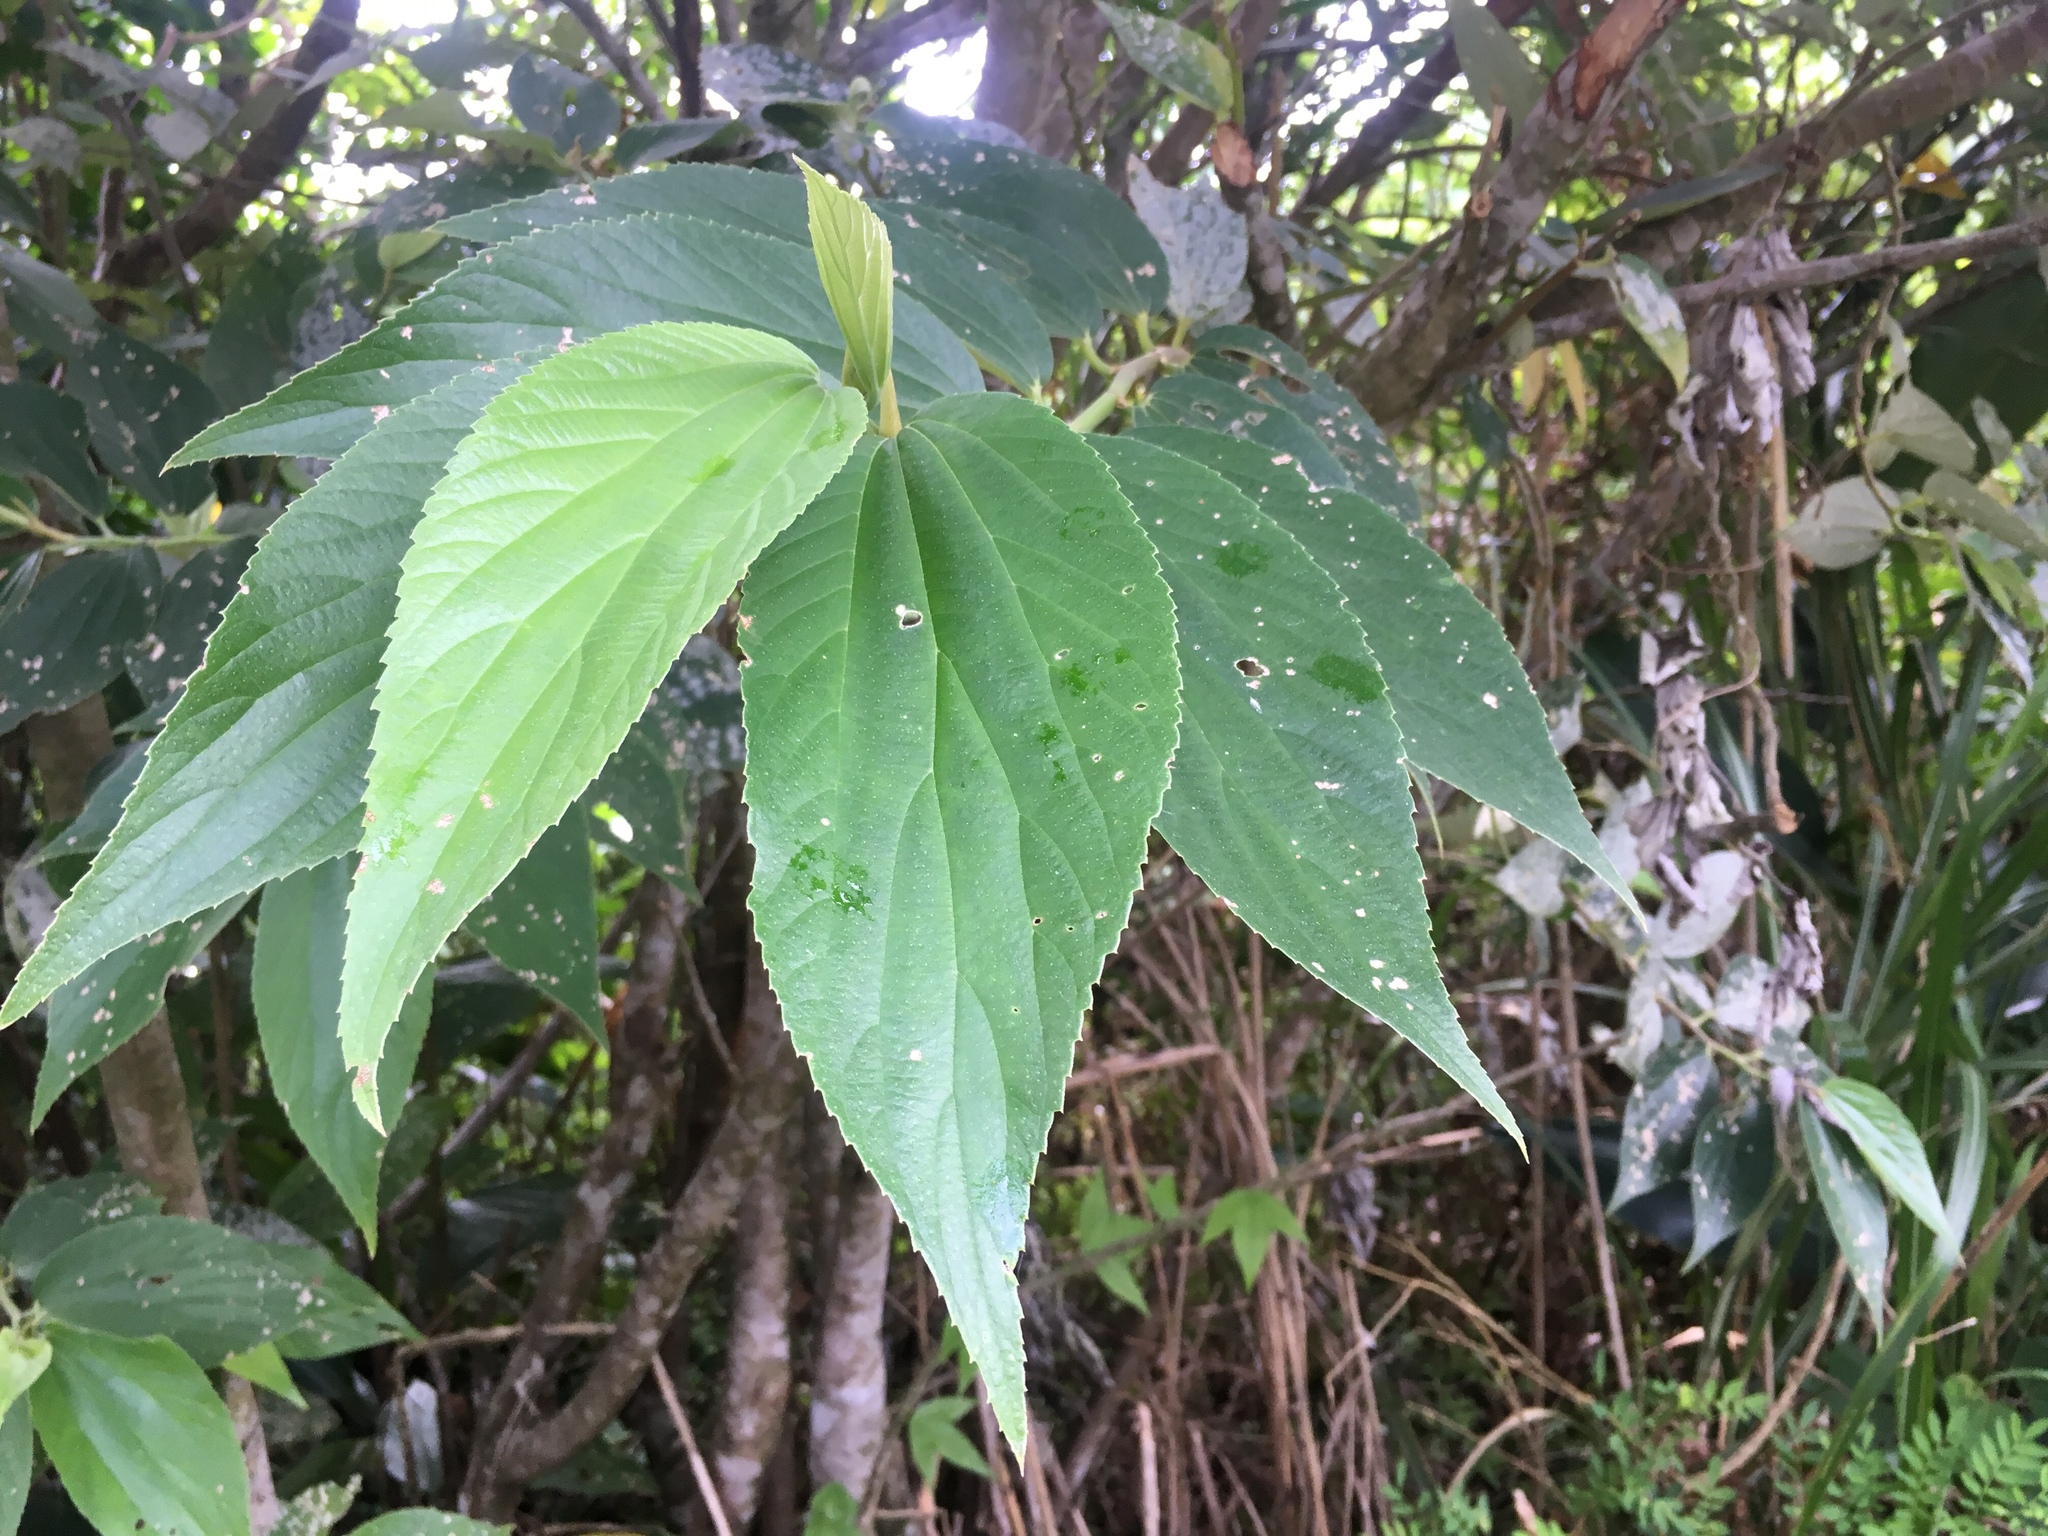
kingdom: Plantae
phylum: Tracheophyta
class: Magnoliopsida
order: Rosales
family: Urticaceae
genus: Leucosyke
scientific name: Leucosyke quadrinervia
